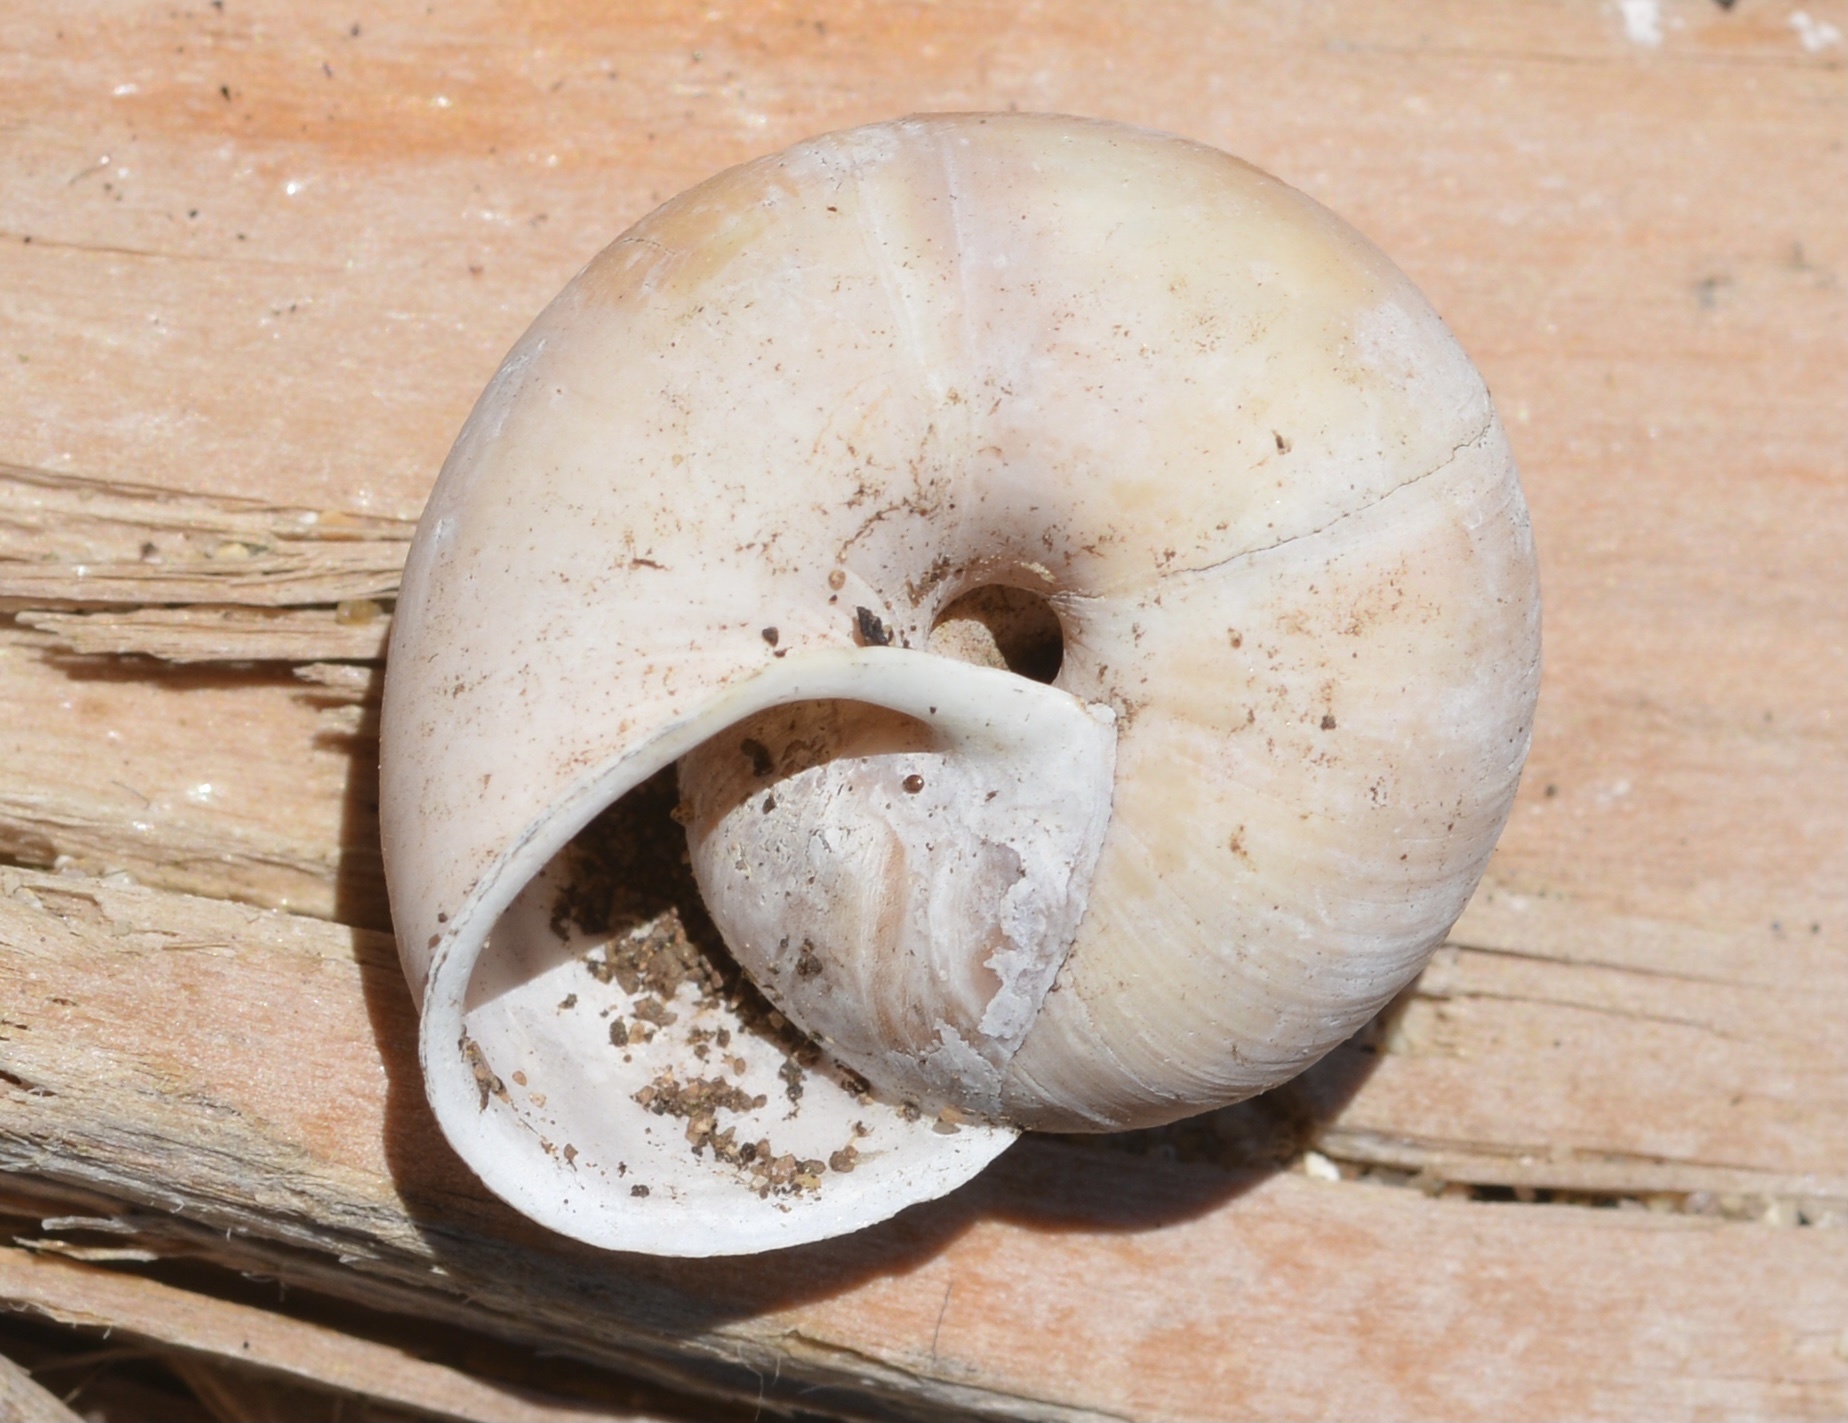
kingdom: Animalia
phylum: Mollusca
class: Gastropoda
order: Stylommatophora
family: Xanthonychidae
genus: Helminthoglypta
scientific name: Helminthoglypta dupetithouarsi
